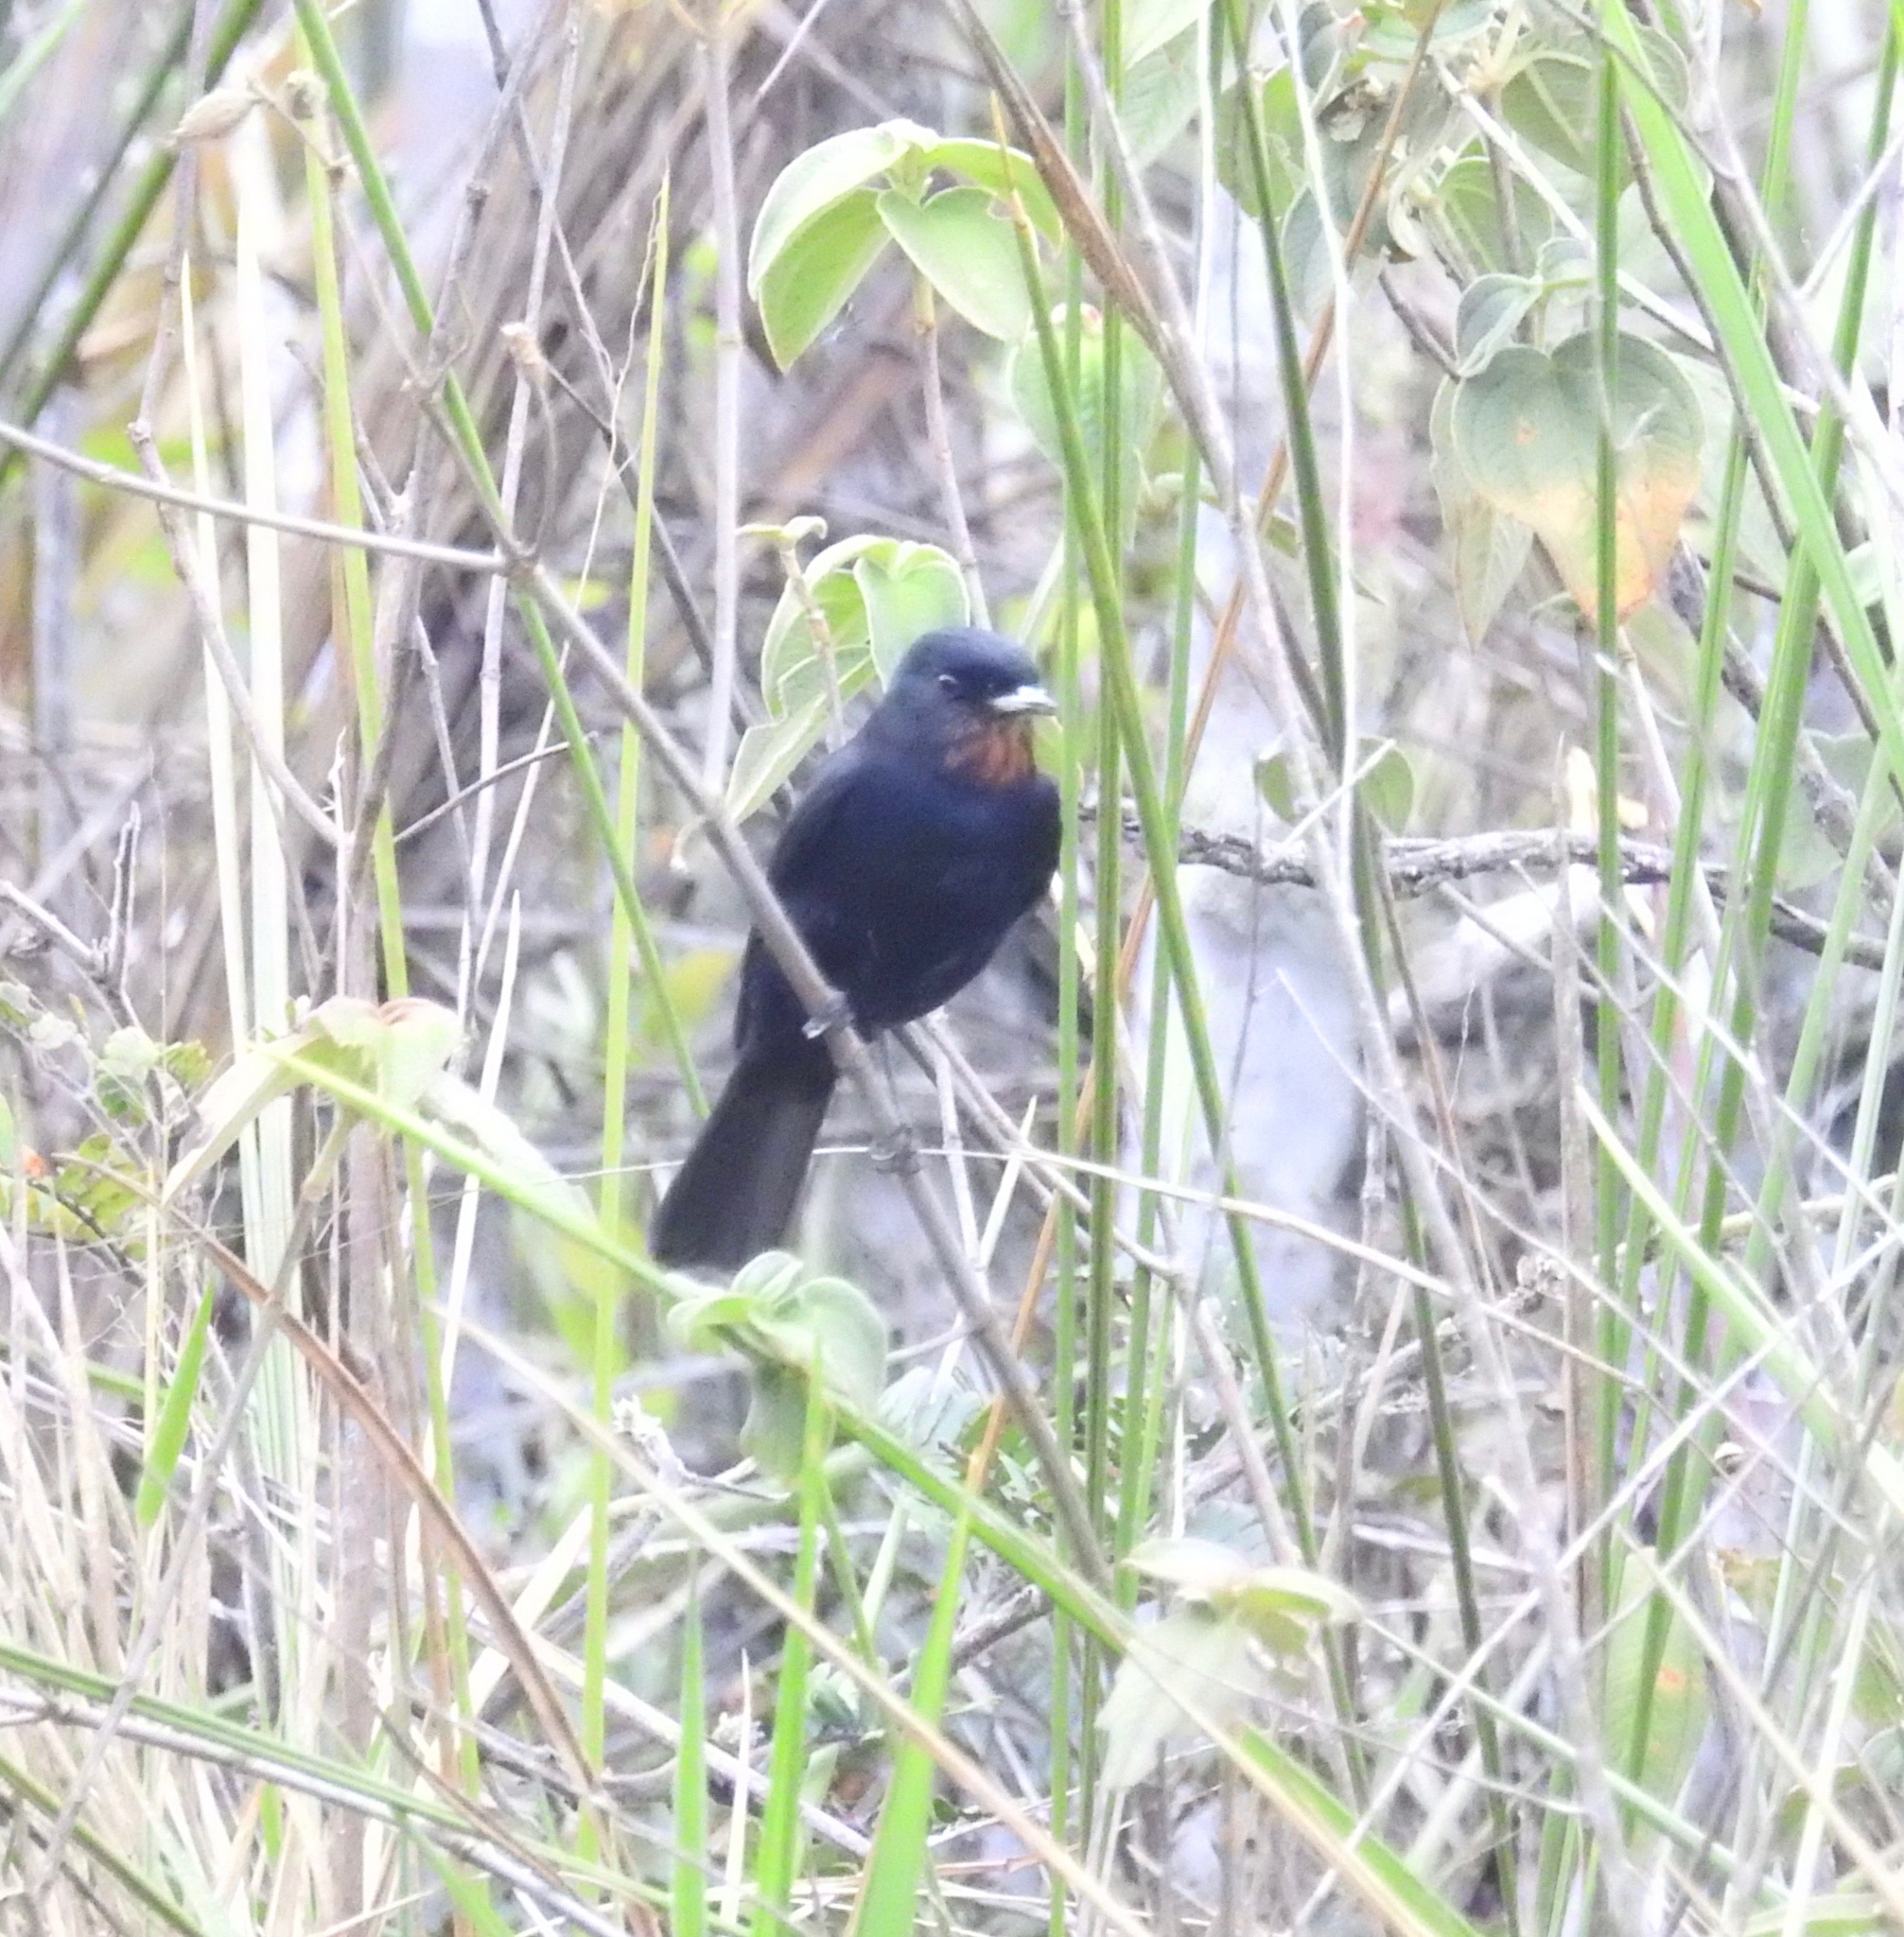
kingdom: Animalia
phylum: Chordata
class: Aves
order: Passeriformes
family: Tyrannidae
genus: Knipolegus
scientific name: Knipolegus nigerrimus
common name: Velvety black tyrant
